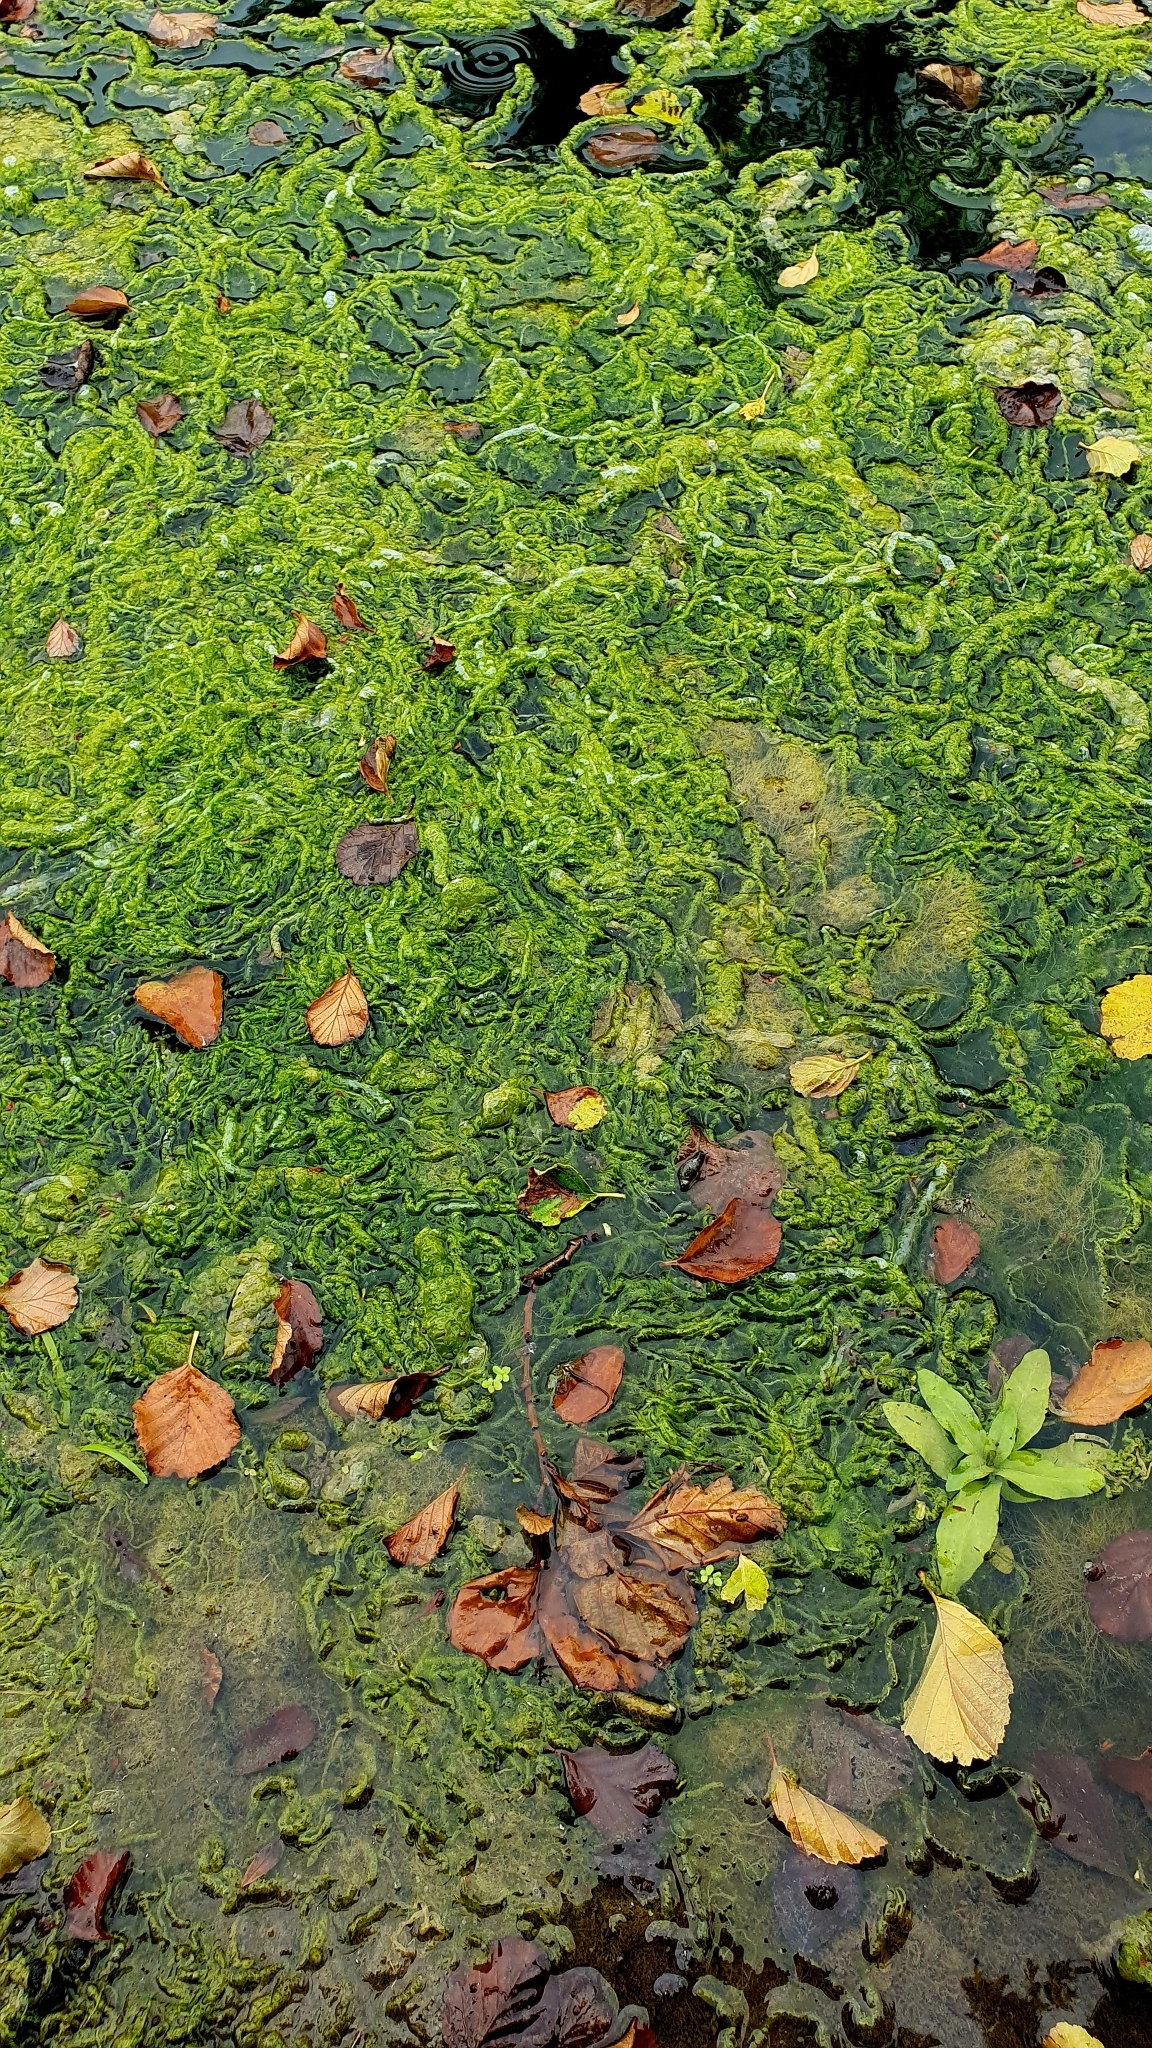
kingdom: Plantae
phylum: Chlorophyta
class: Ulvophyceae
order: Ulvales
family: Ulvaceae
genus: Ulva
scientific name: Ulva intestinalis
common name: Gut weed
